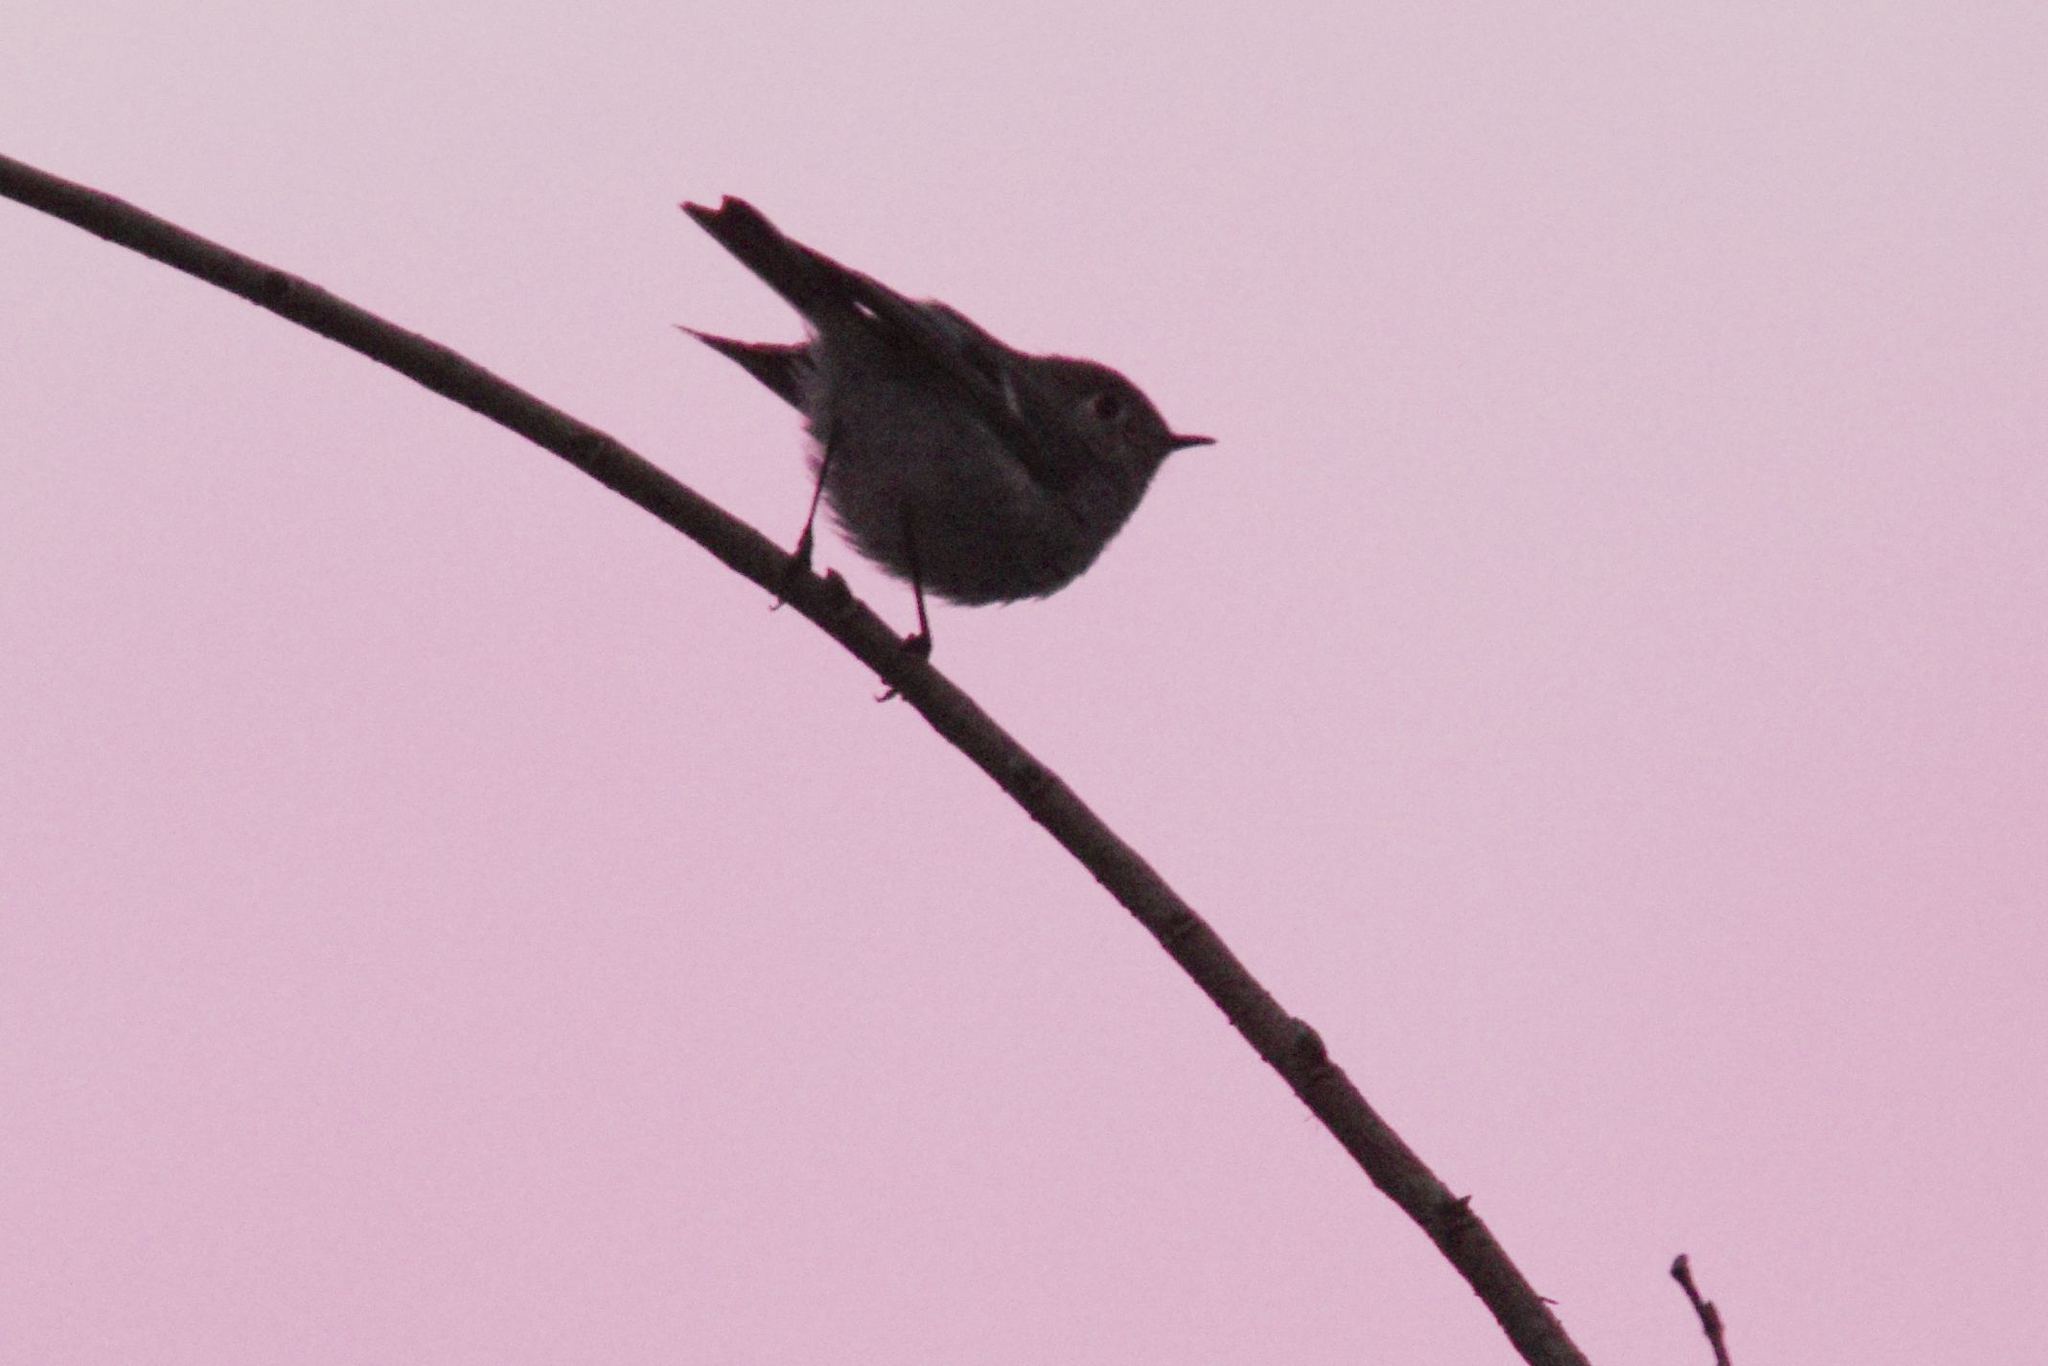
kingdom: Animalia
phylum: Chordata
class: Aves
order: Passeriformes
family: Regulidae
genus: Regulus
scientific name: Regulus calendula
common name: Ruby-crowned kinglet
